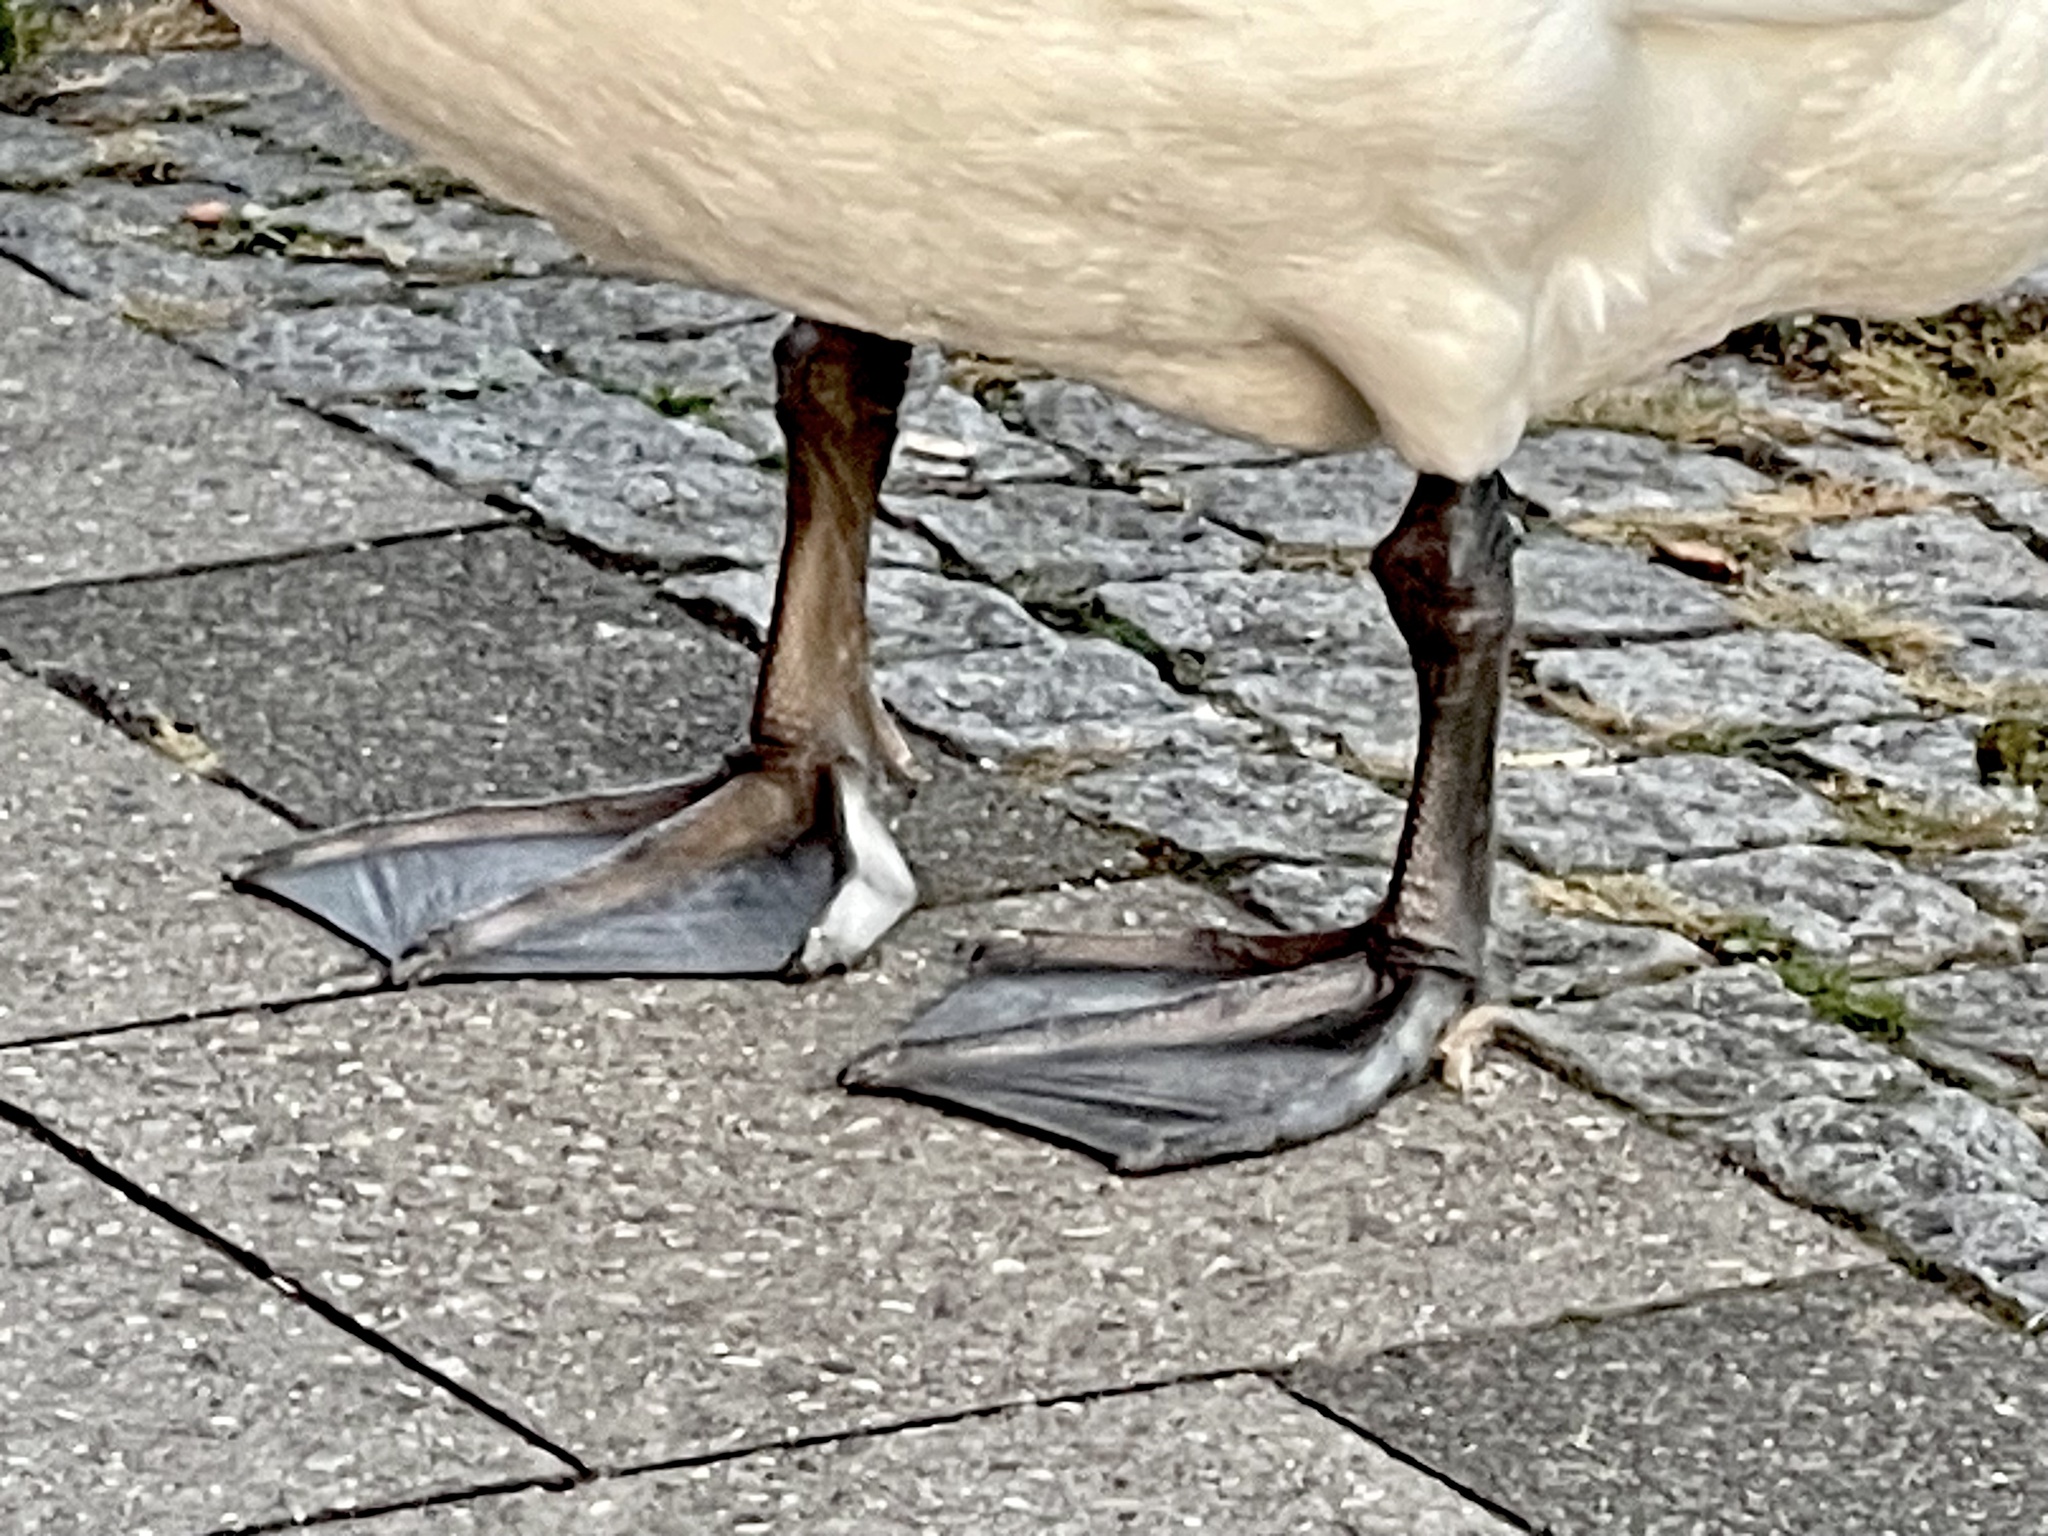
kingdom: Animalia
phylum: Chordata
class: Aves
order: Anseriformes
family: Anatidae
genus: Cygnus
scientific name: Cygnus olor
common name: Mute swan
